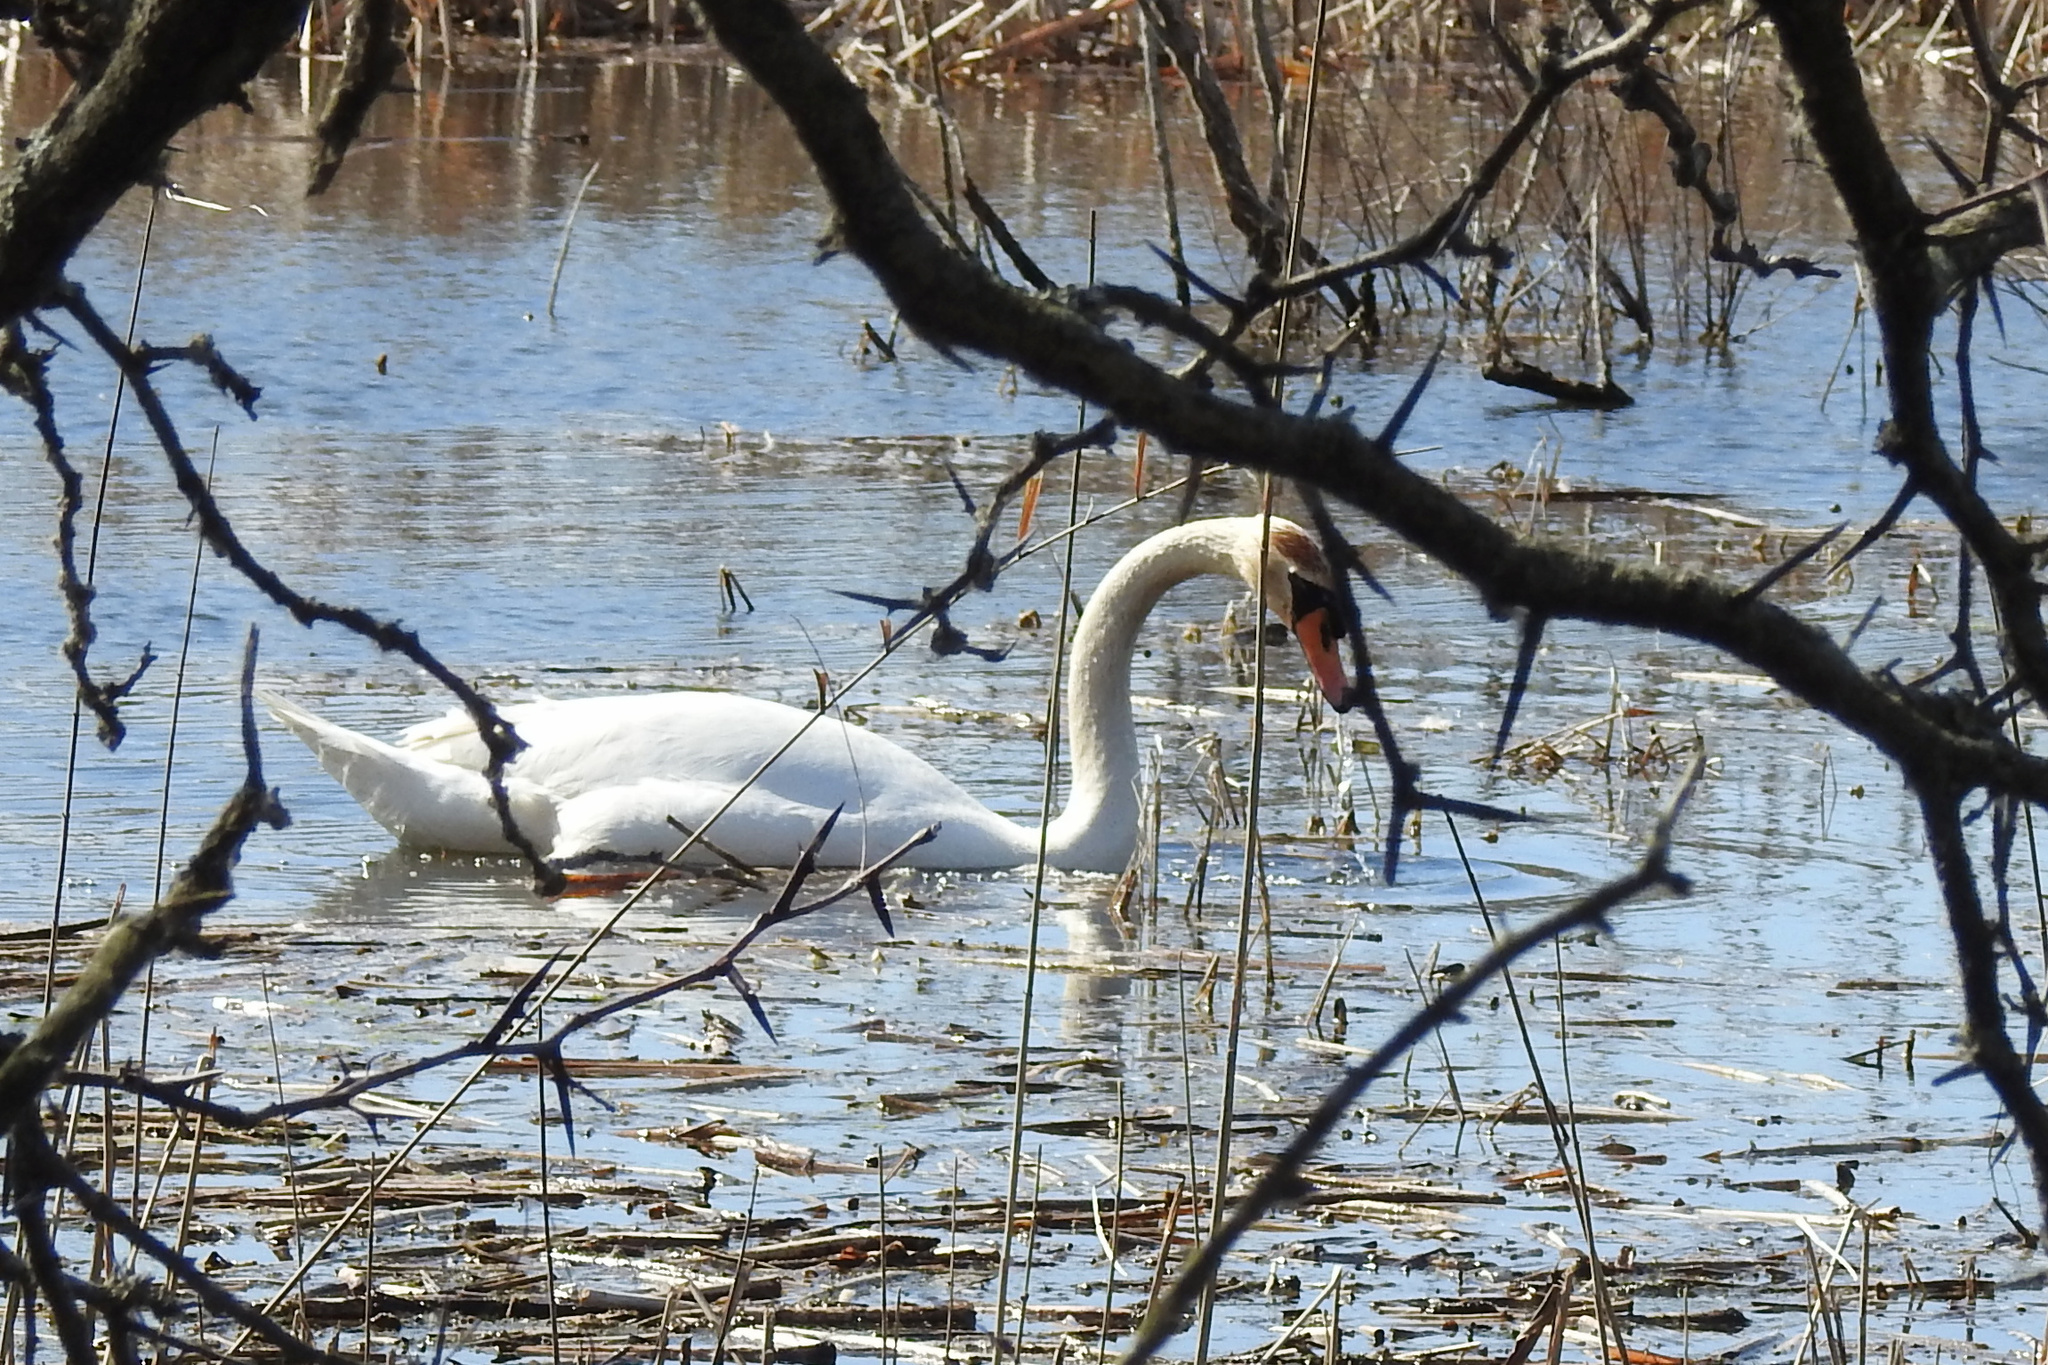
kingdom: Animalia
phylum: Chordata
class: Aves
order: Anseriformes
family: Anatidae
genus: Cygnus
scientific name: Cygnus olor
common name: Mute swan
